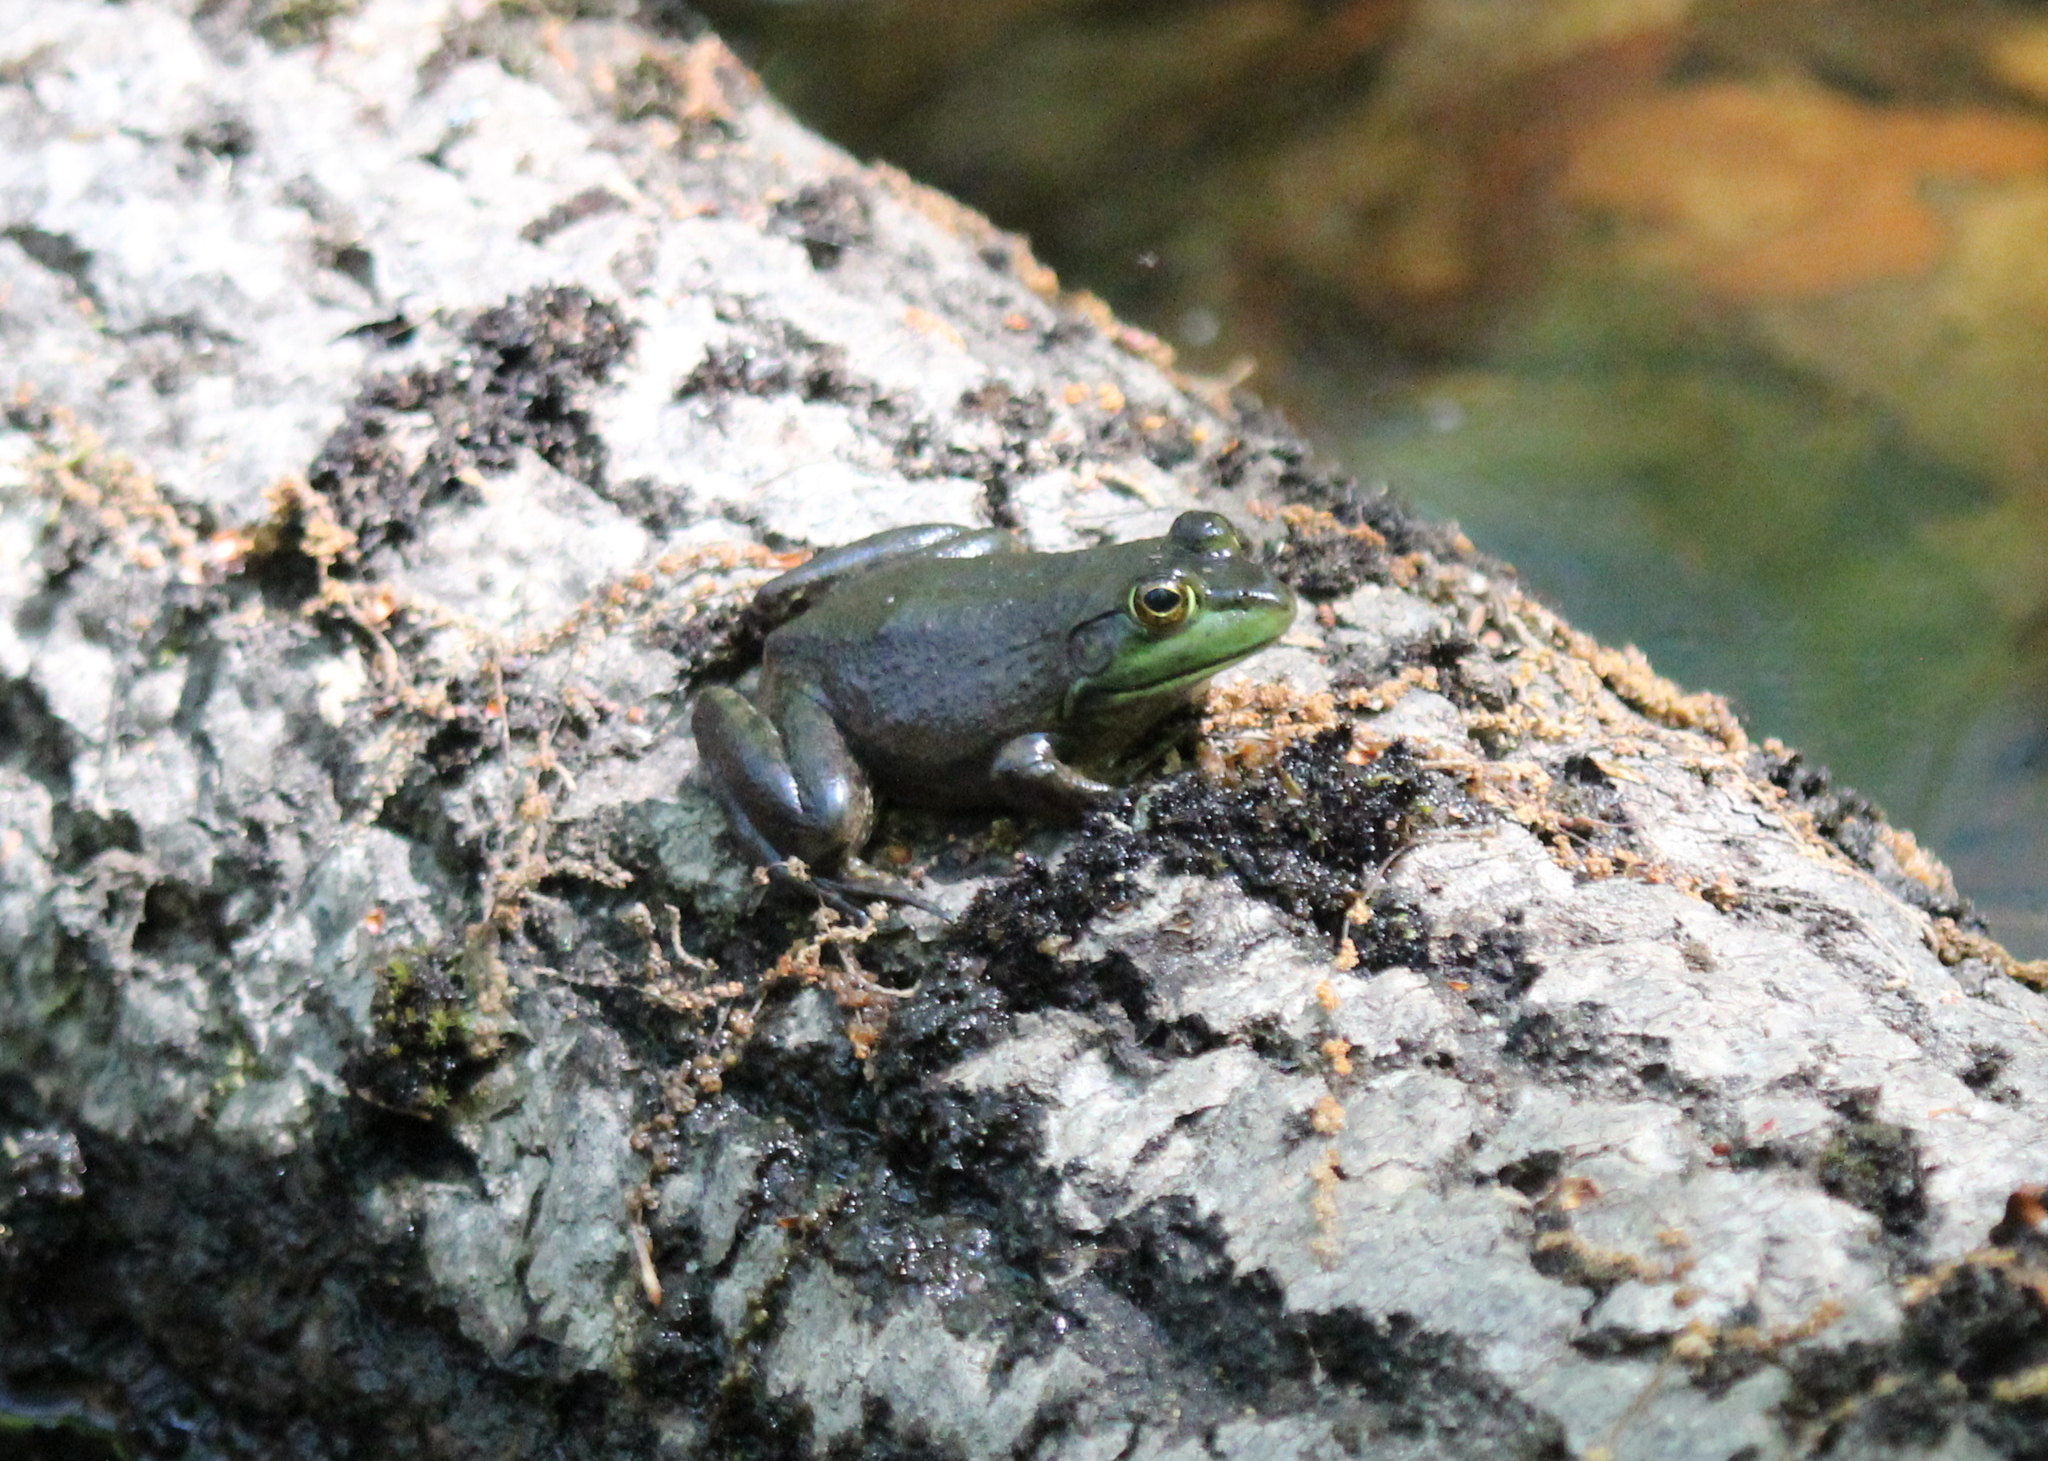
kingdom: Animalia
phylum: Chordata
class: Amphibia
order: Anura
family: Ranidae
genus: Lithobates
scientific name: Lithobates catesbeianus
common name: American bullfrog
